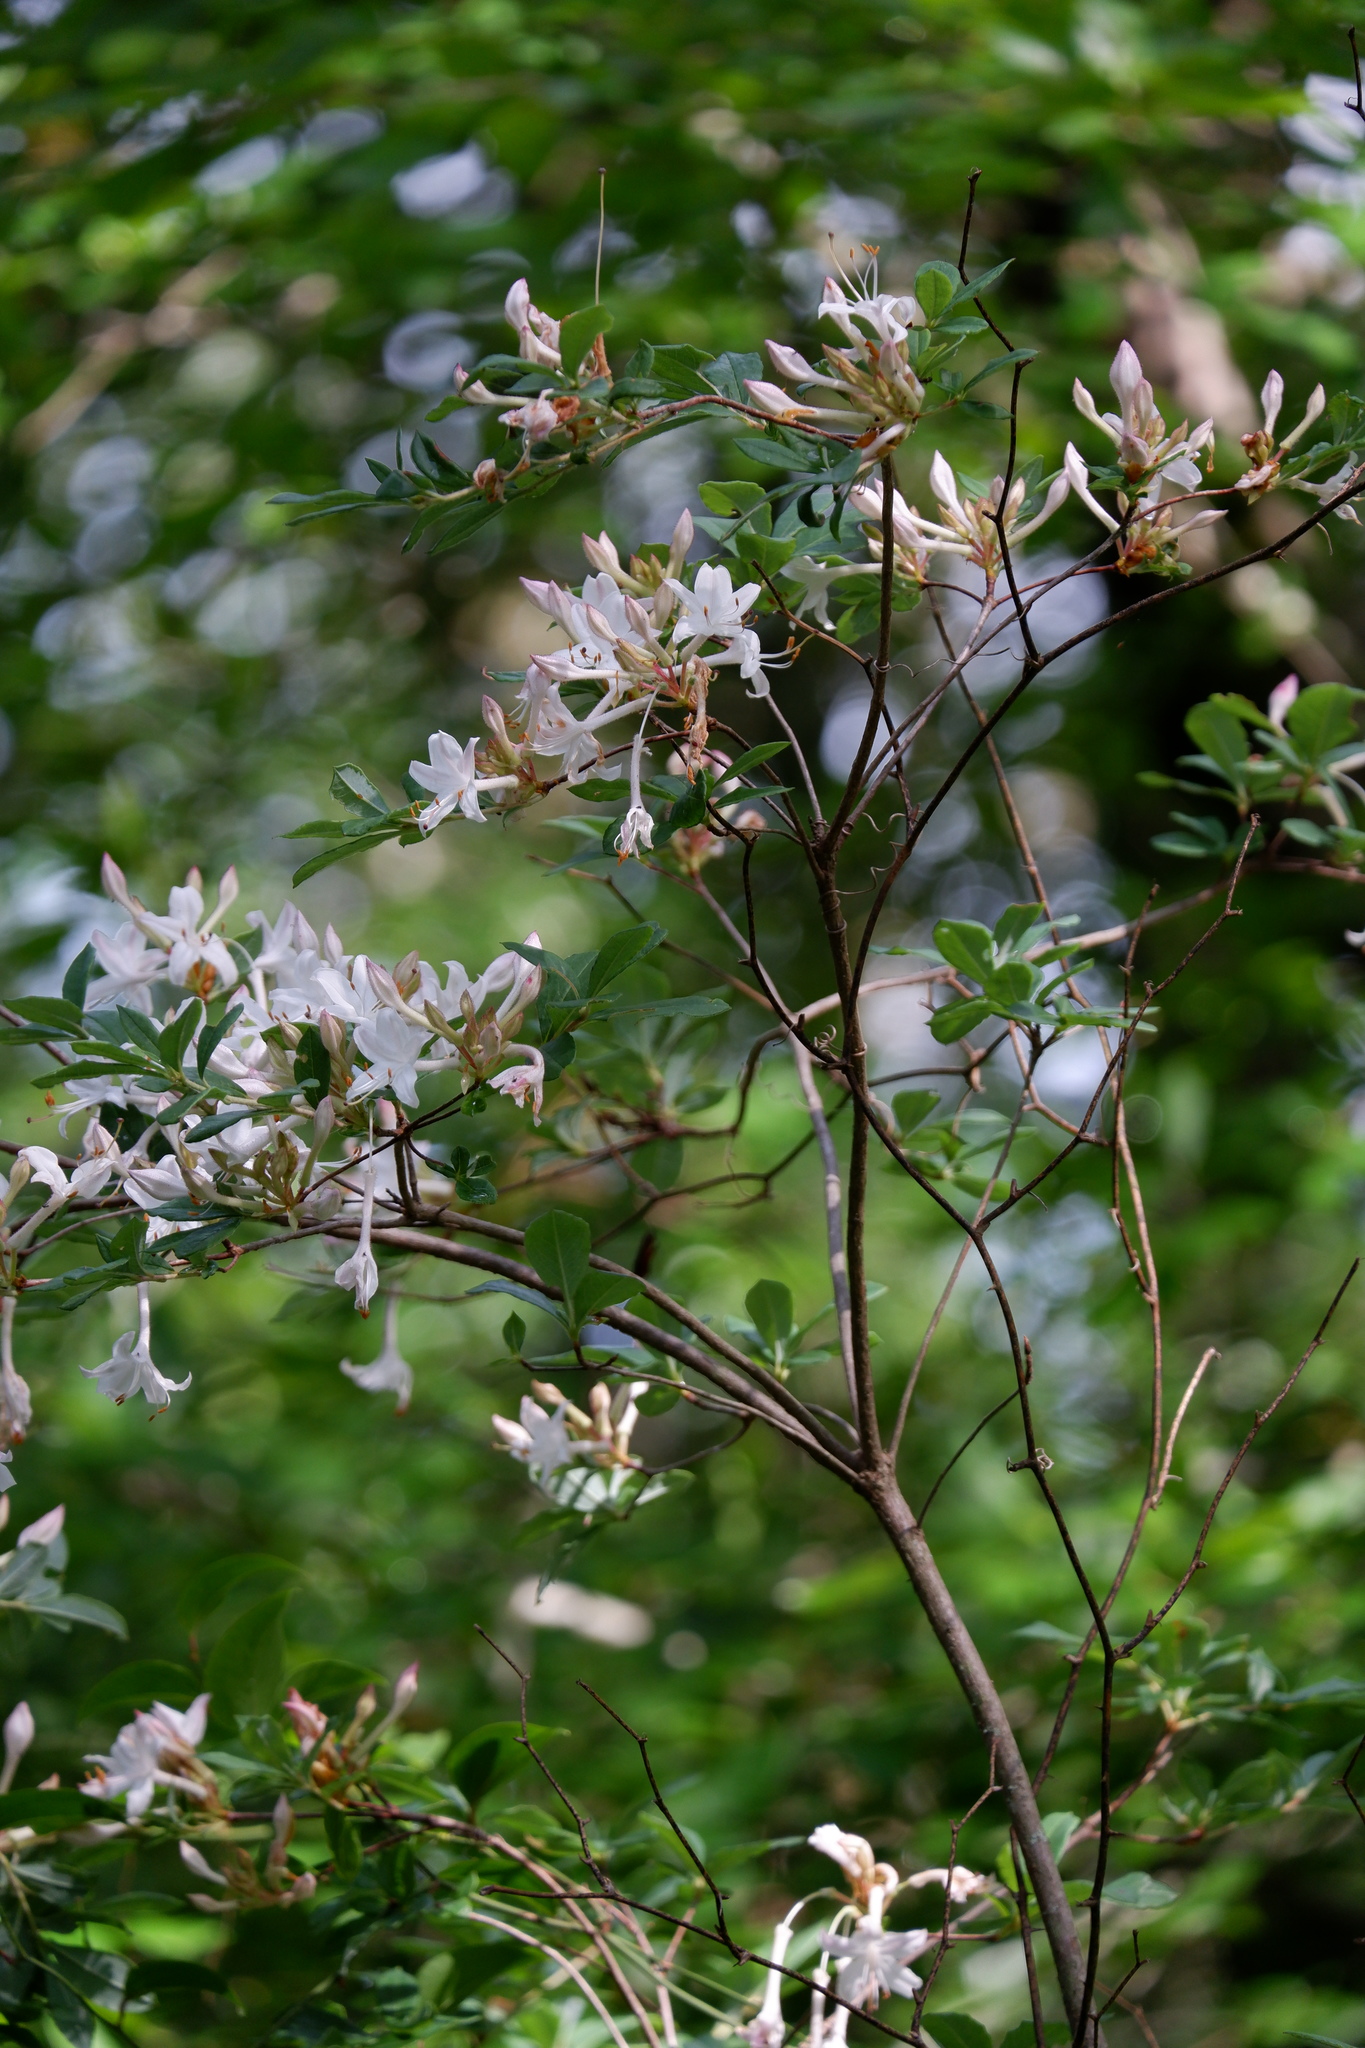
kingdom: Plantae
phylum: Tracheophyta
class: Magnoliopsida
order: Ericales
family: Ericaceae
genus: Rhododendron
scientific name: Rhododendron viscosum
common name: Clammy azalea
